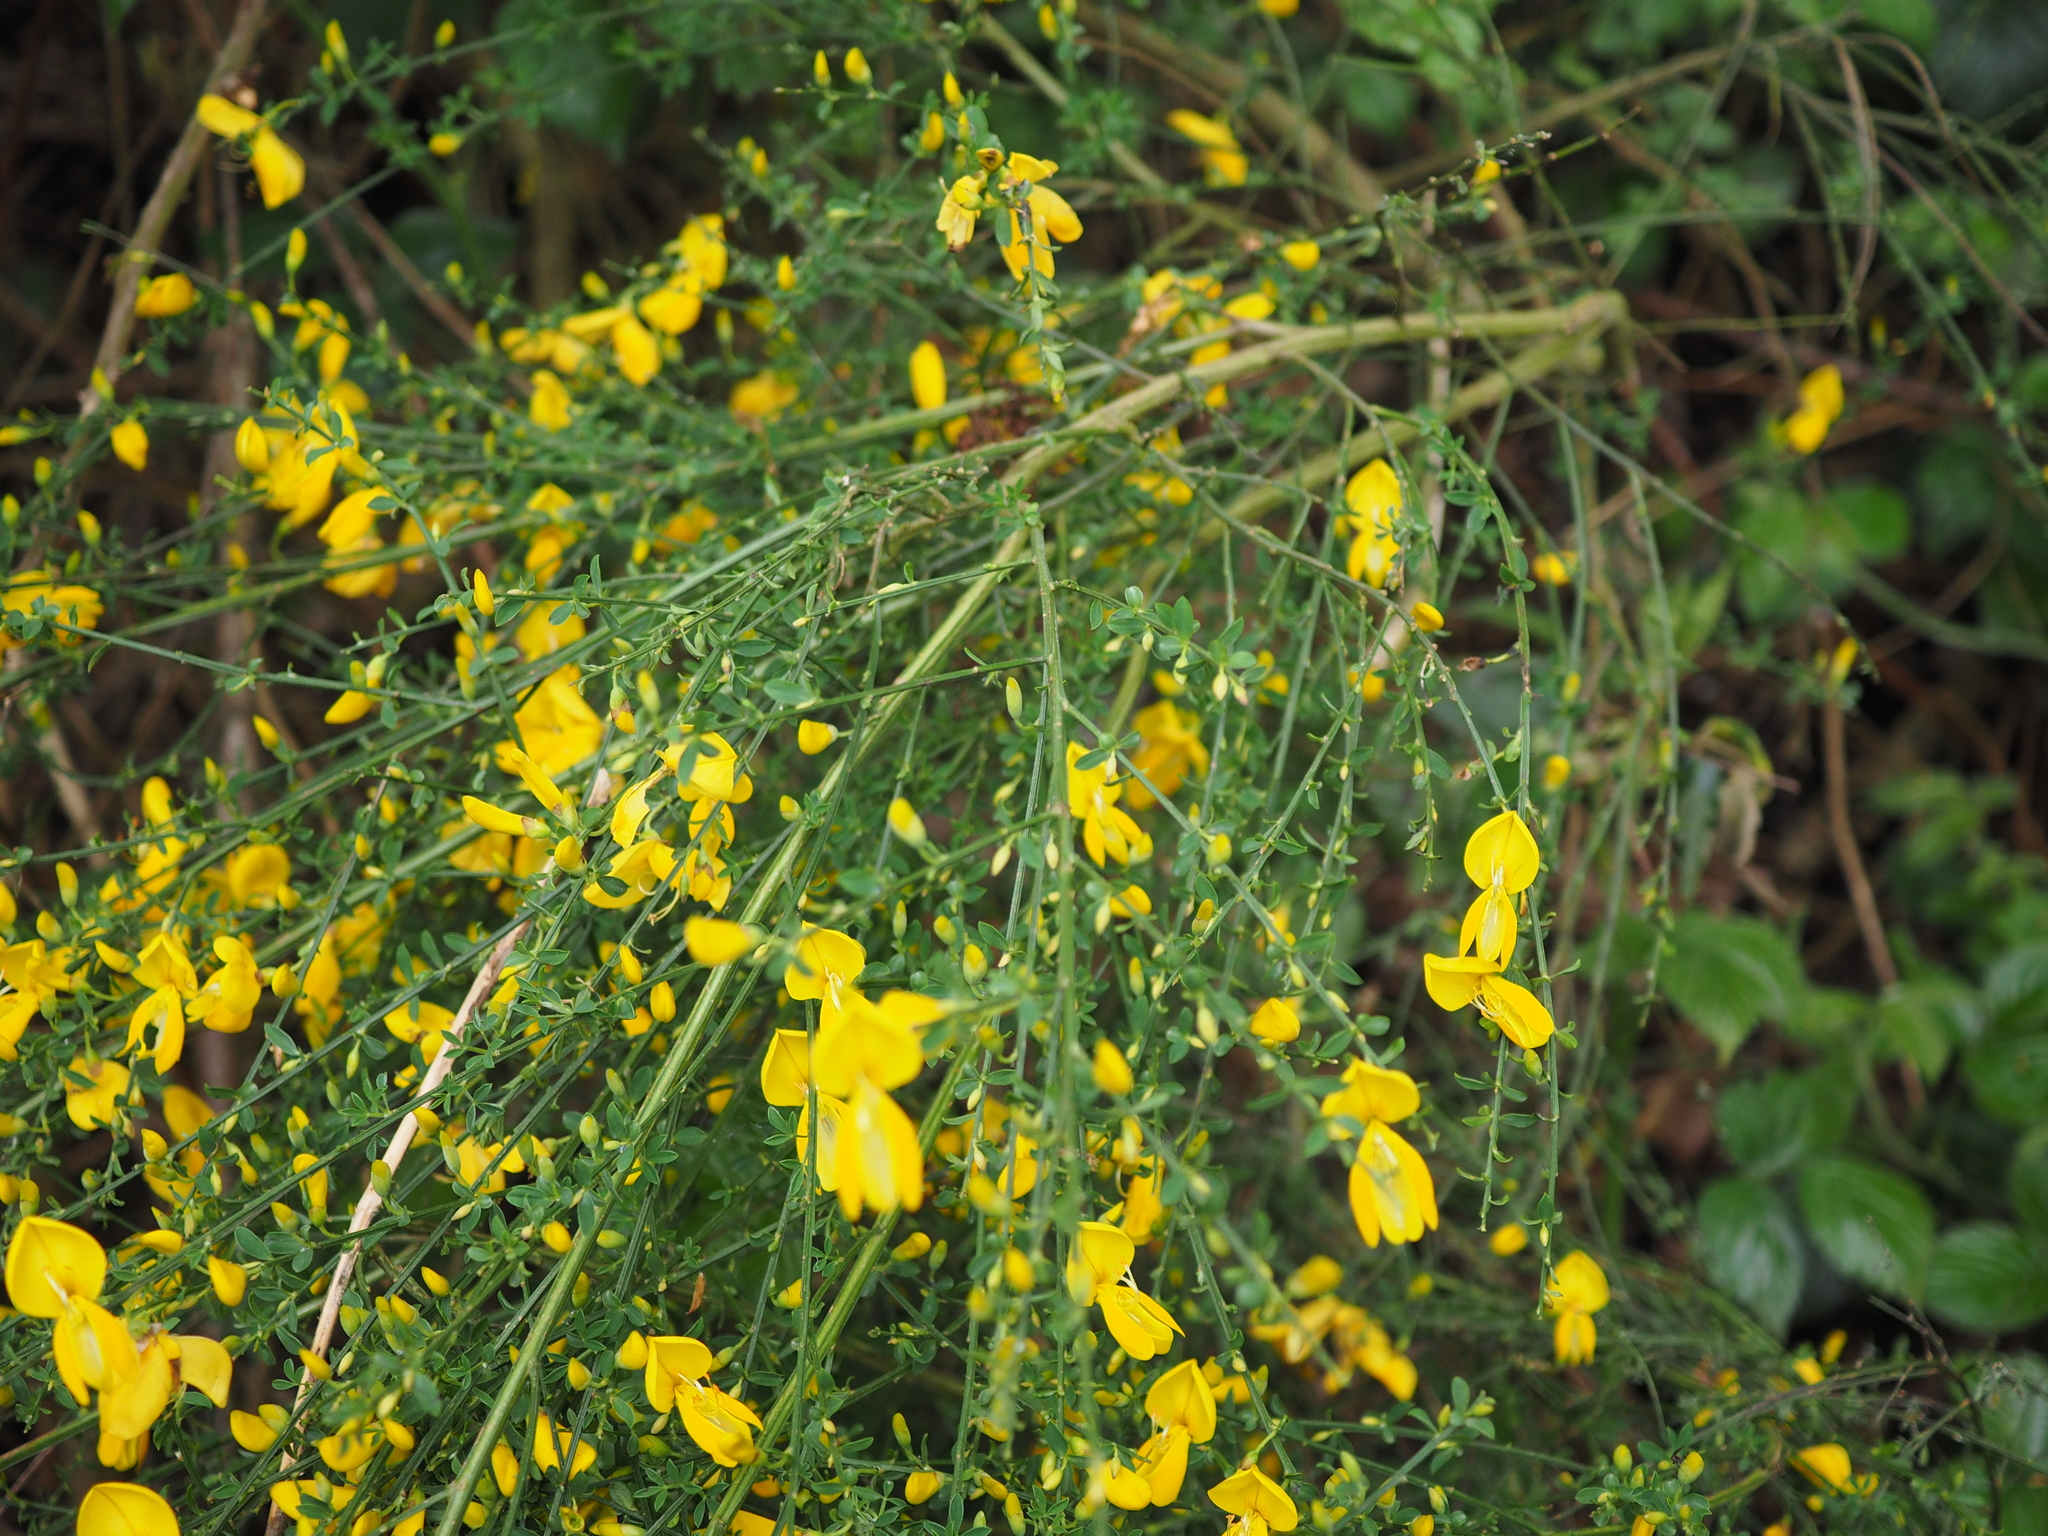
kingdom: Plantae
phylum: Tracheophyta
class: Magnoliopsida
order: Fabales
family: Fabaceae
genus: Cytisus
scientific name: Cytisus scoparius
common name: Scotch broom
